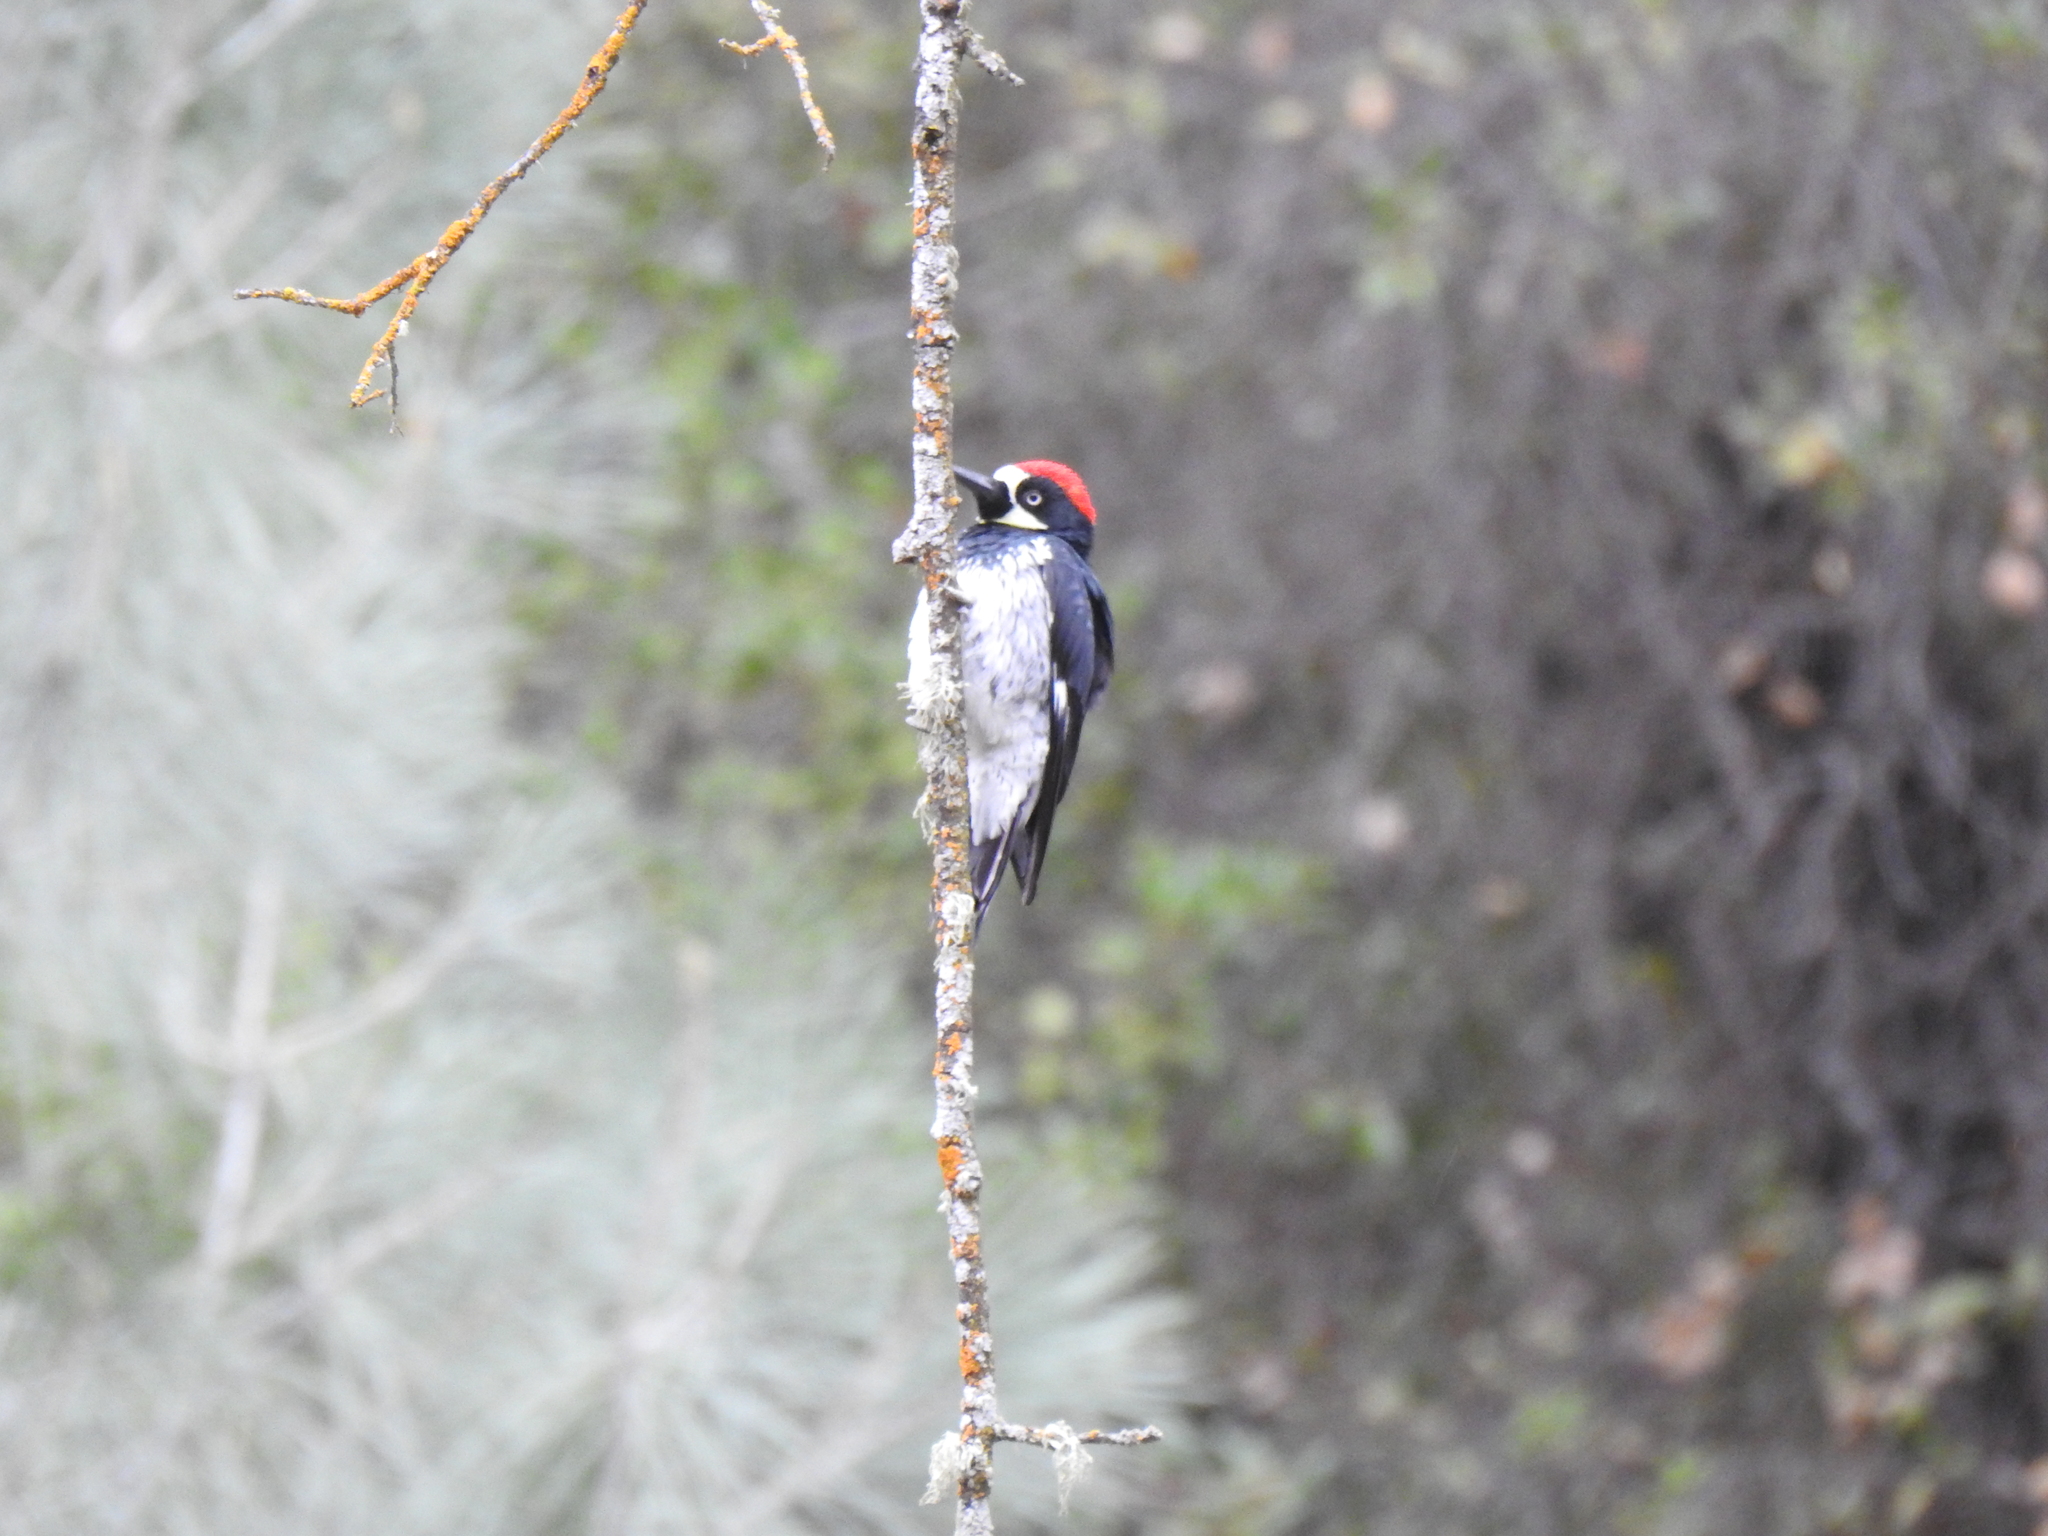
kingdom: Animalia
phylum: Chordata
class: Aves
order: Piciformes
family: Picidae
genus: Melanerpes
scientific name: Melanerpes formicivorus
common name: Acorn woodpecker
